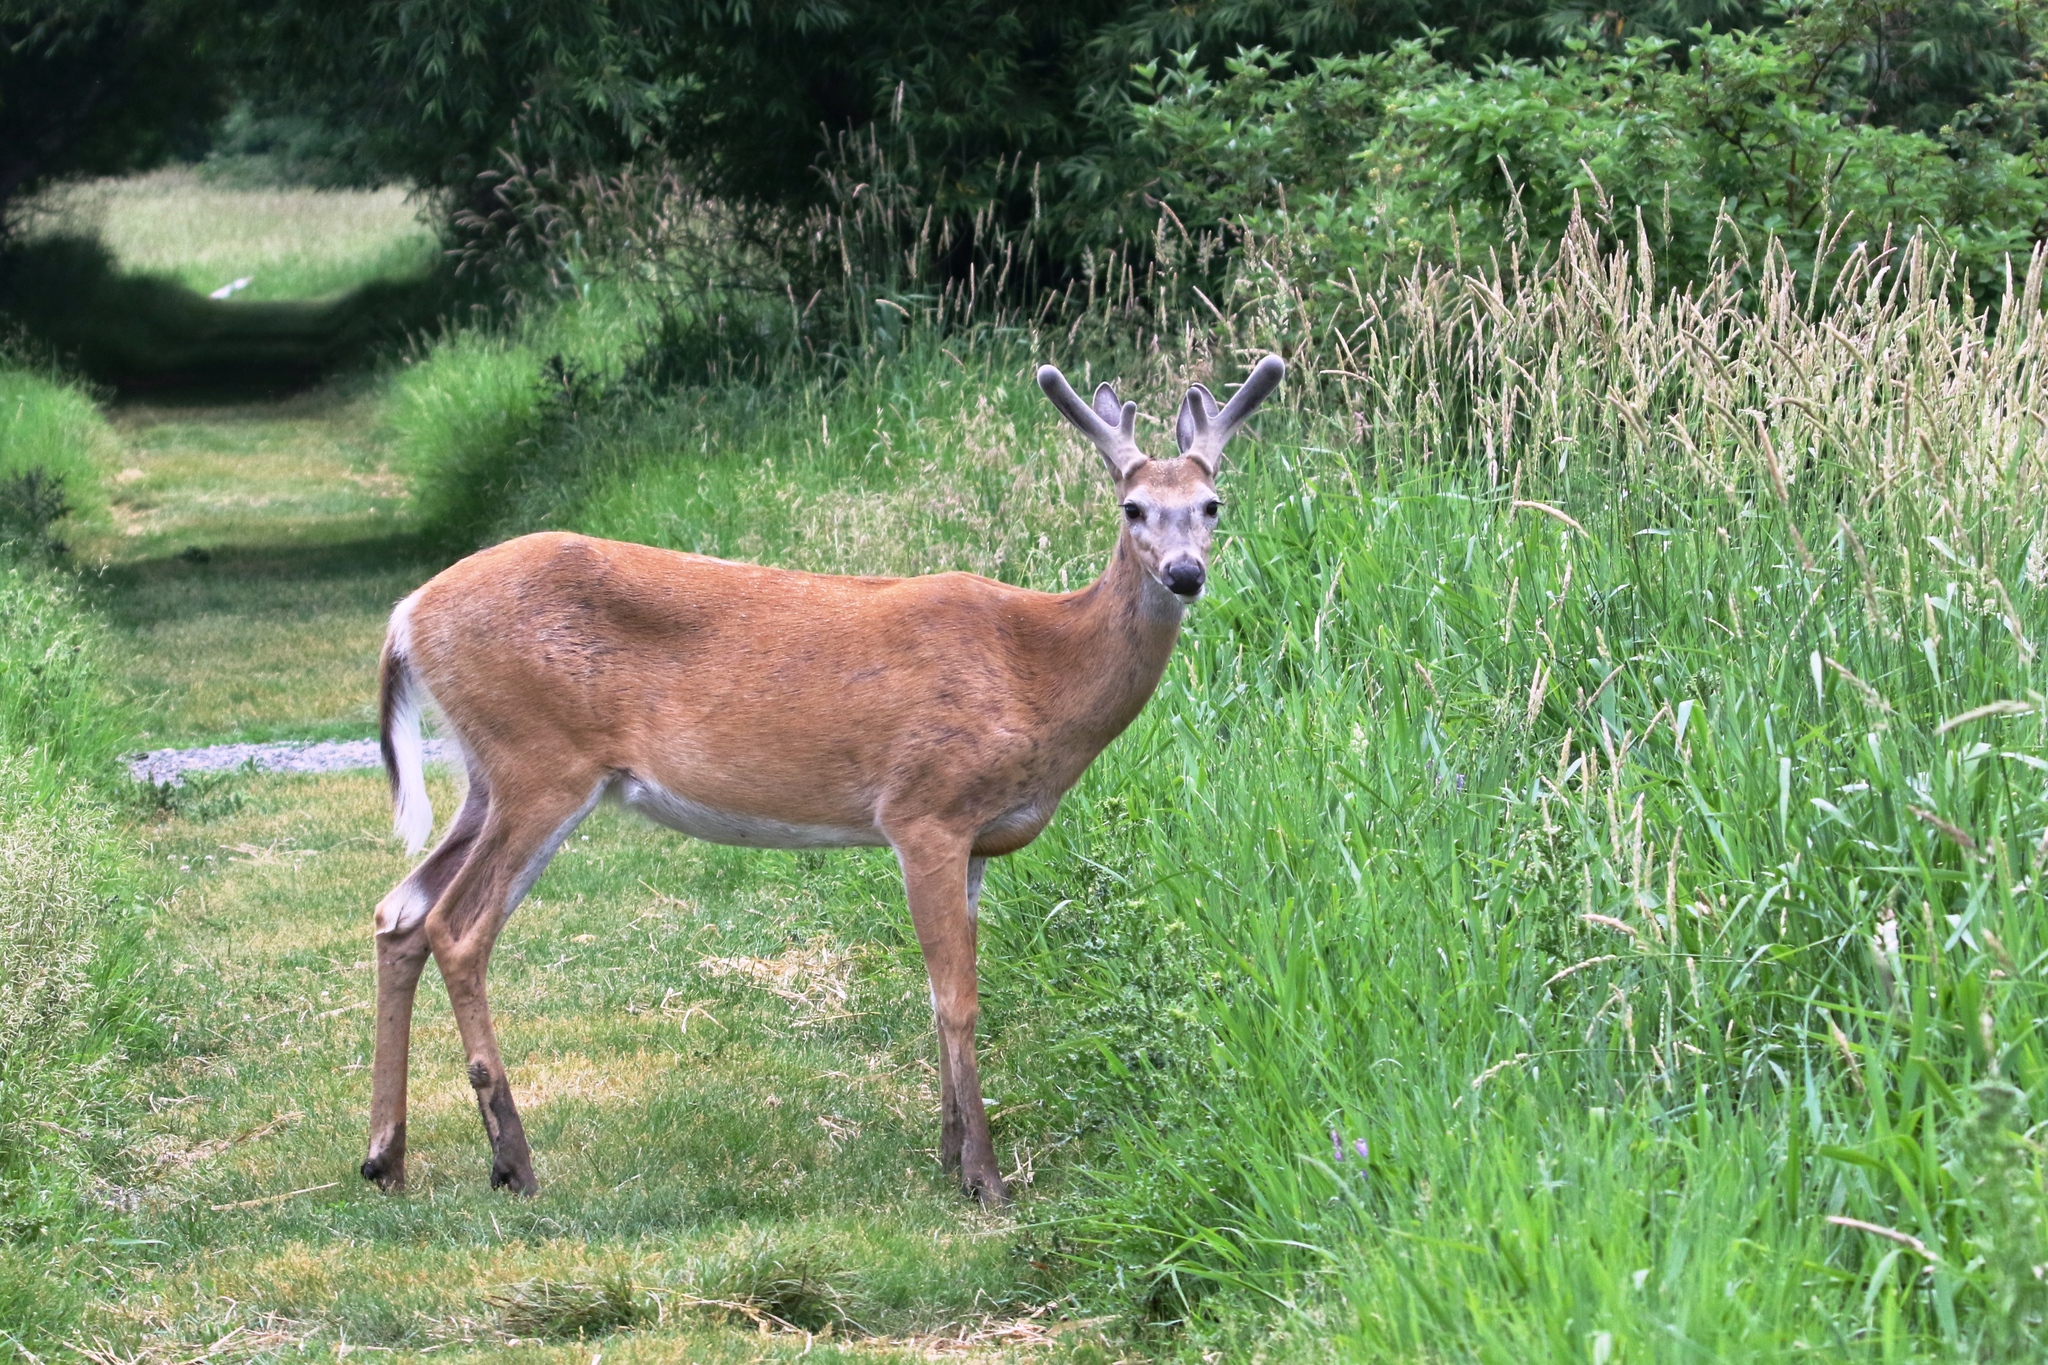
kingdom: Animalia
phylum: Chordata
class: Mammalia
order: Artiodactyla
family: Cervidae
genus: Odocoileus
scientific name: Odocoileus virginianus
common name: White-tailed deer
